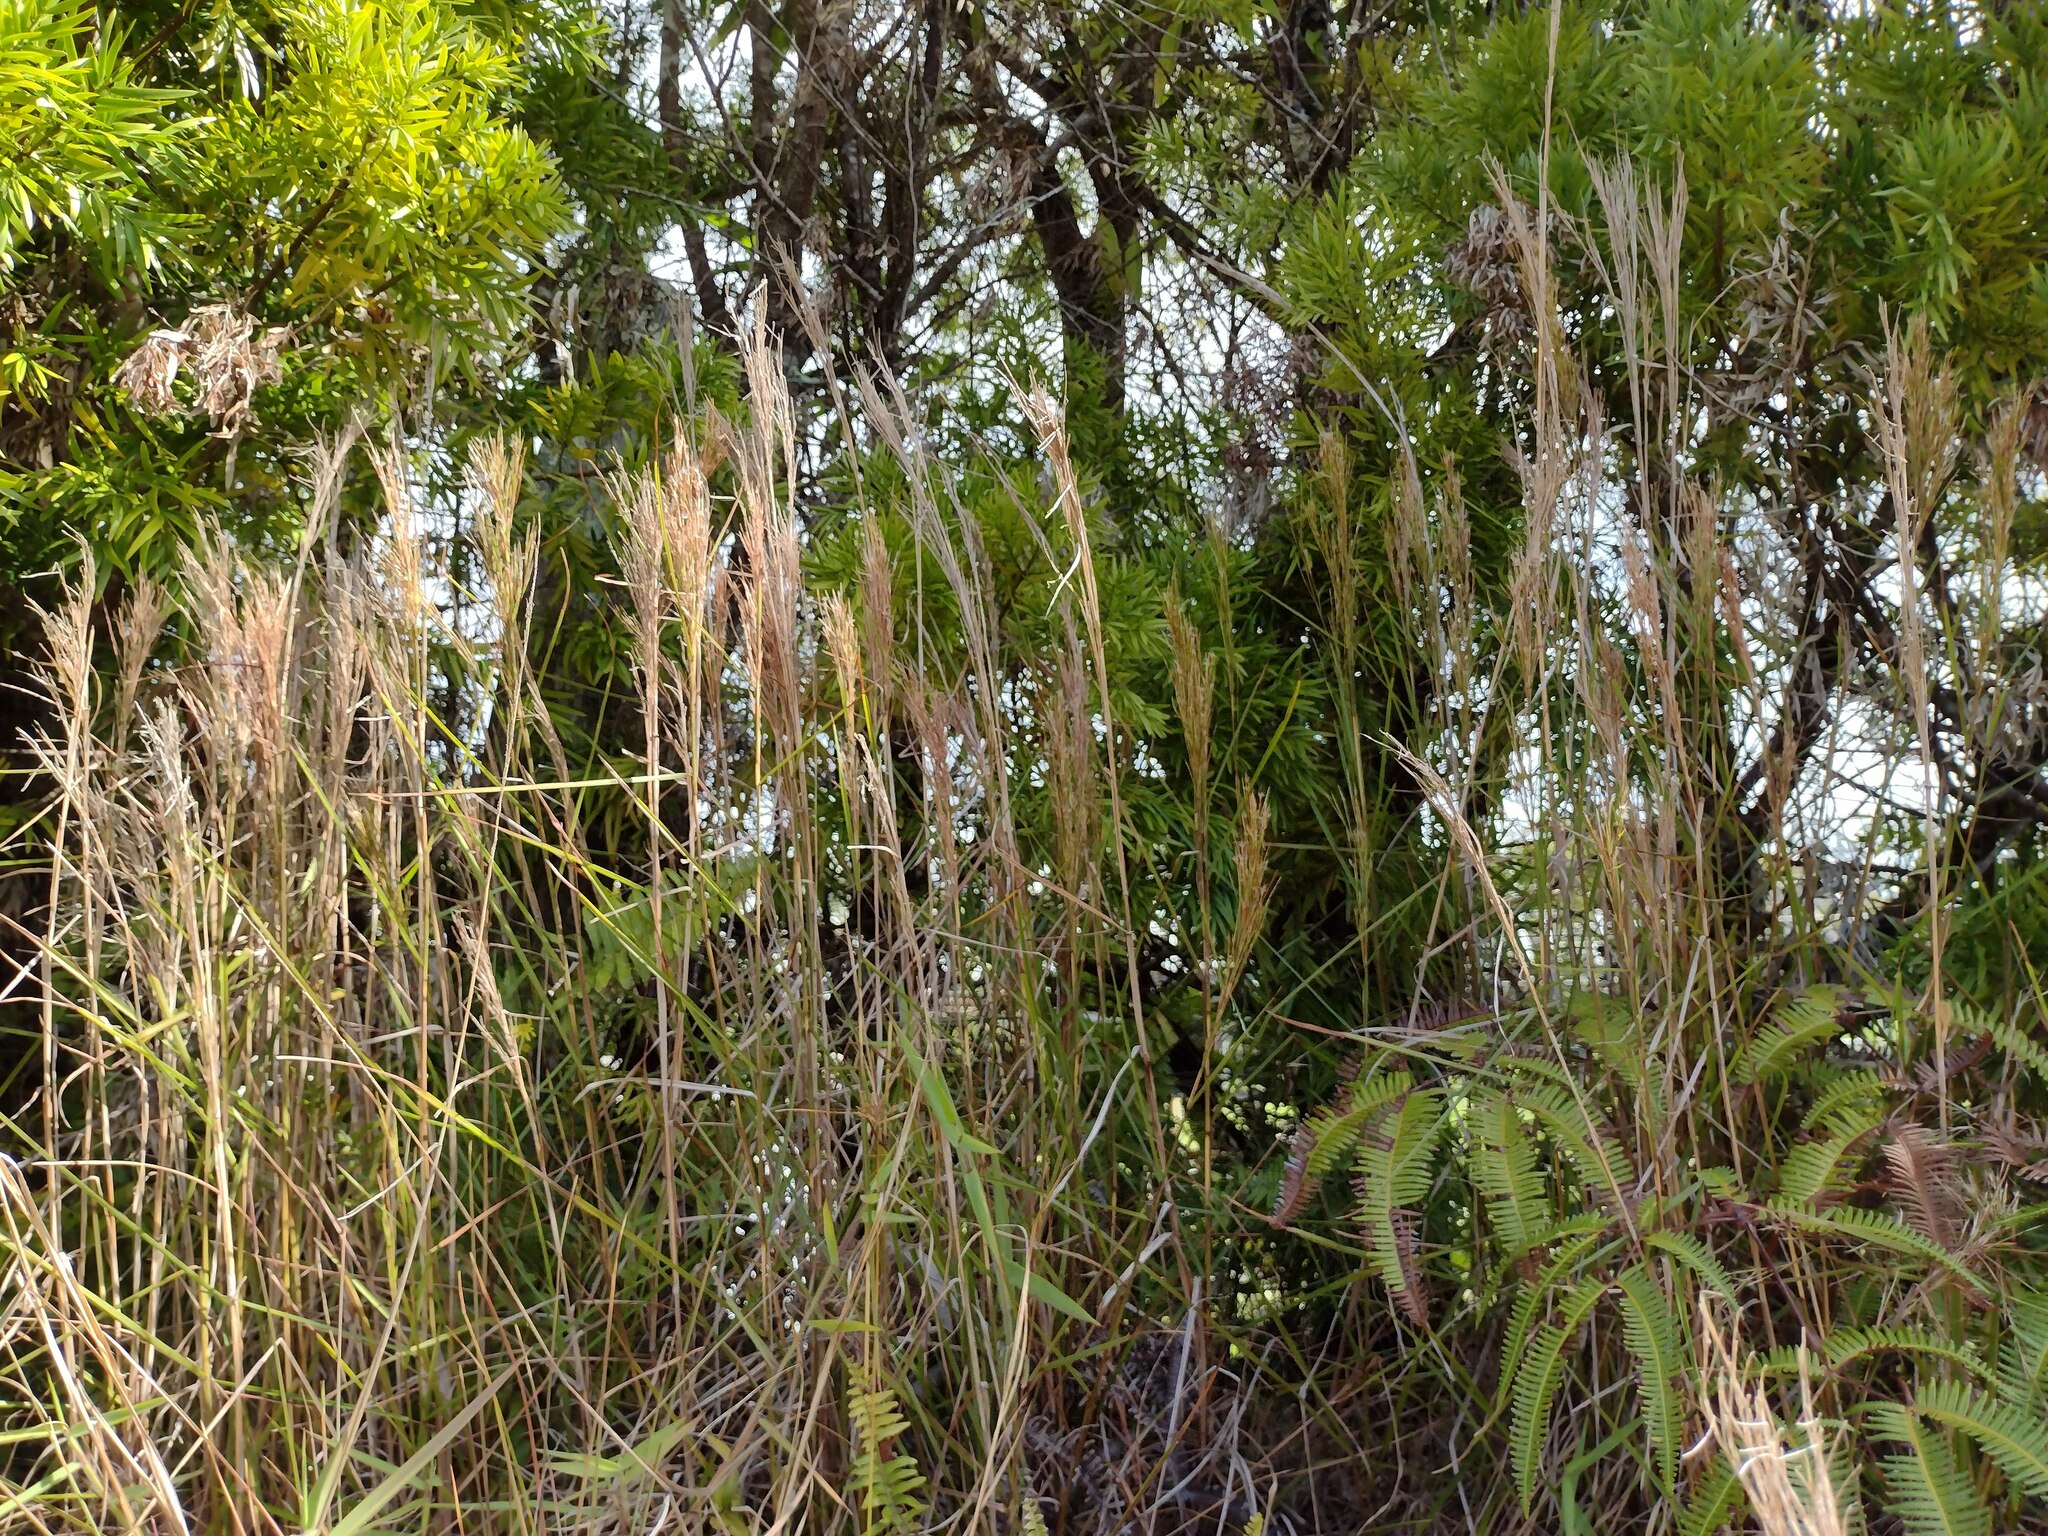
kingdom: Plantae
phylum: Tracheophyta
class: Liliopsida
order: Poales
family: Poaceae
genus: Schizachyrium
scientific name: Schizachyrium microstachyum
